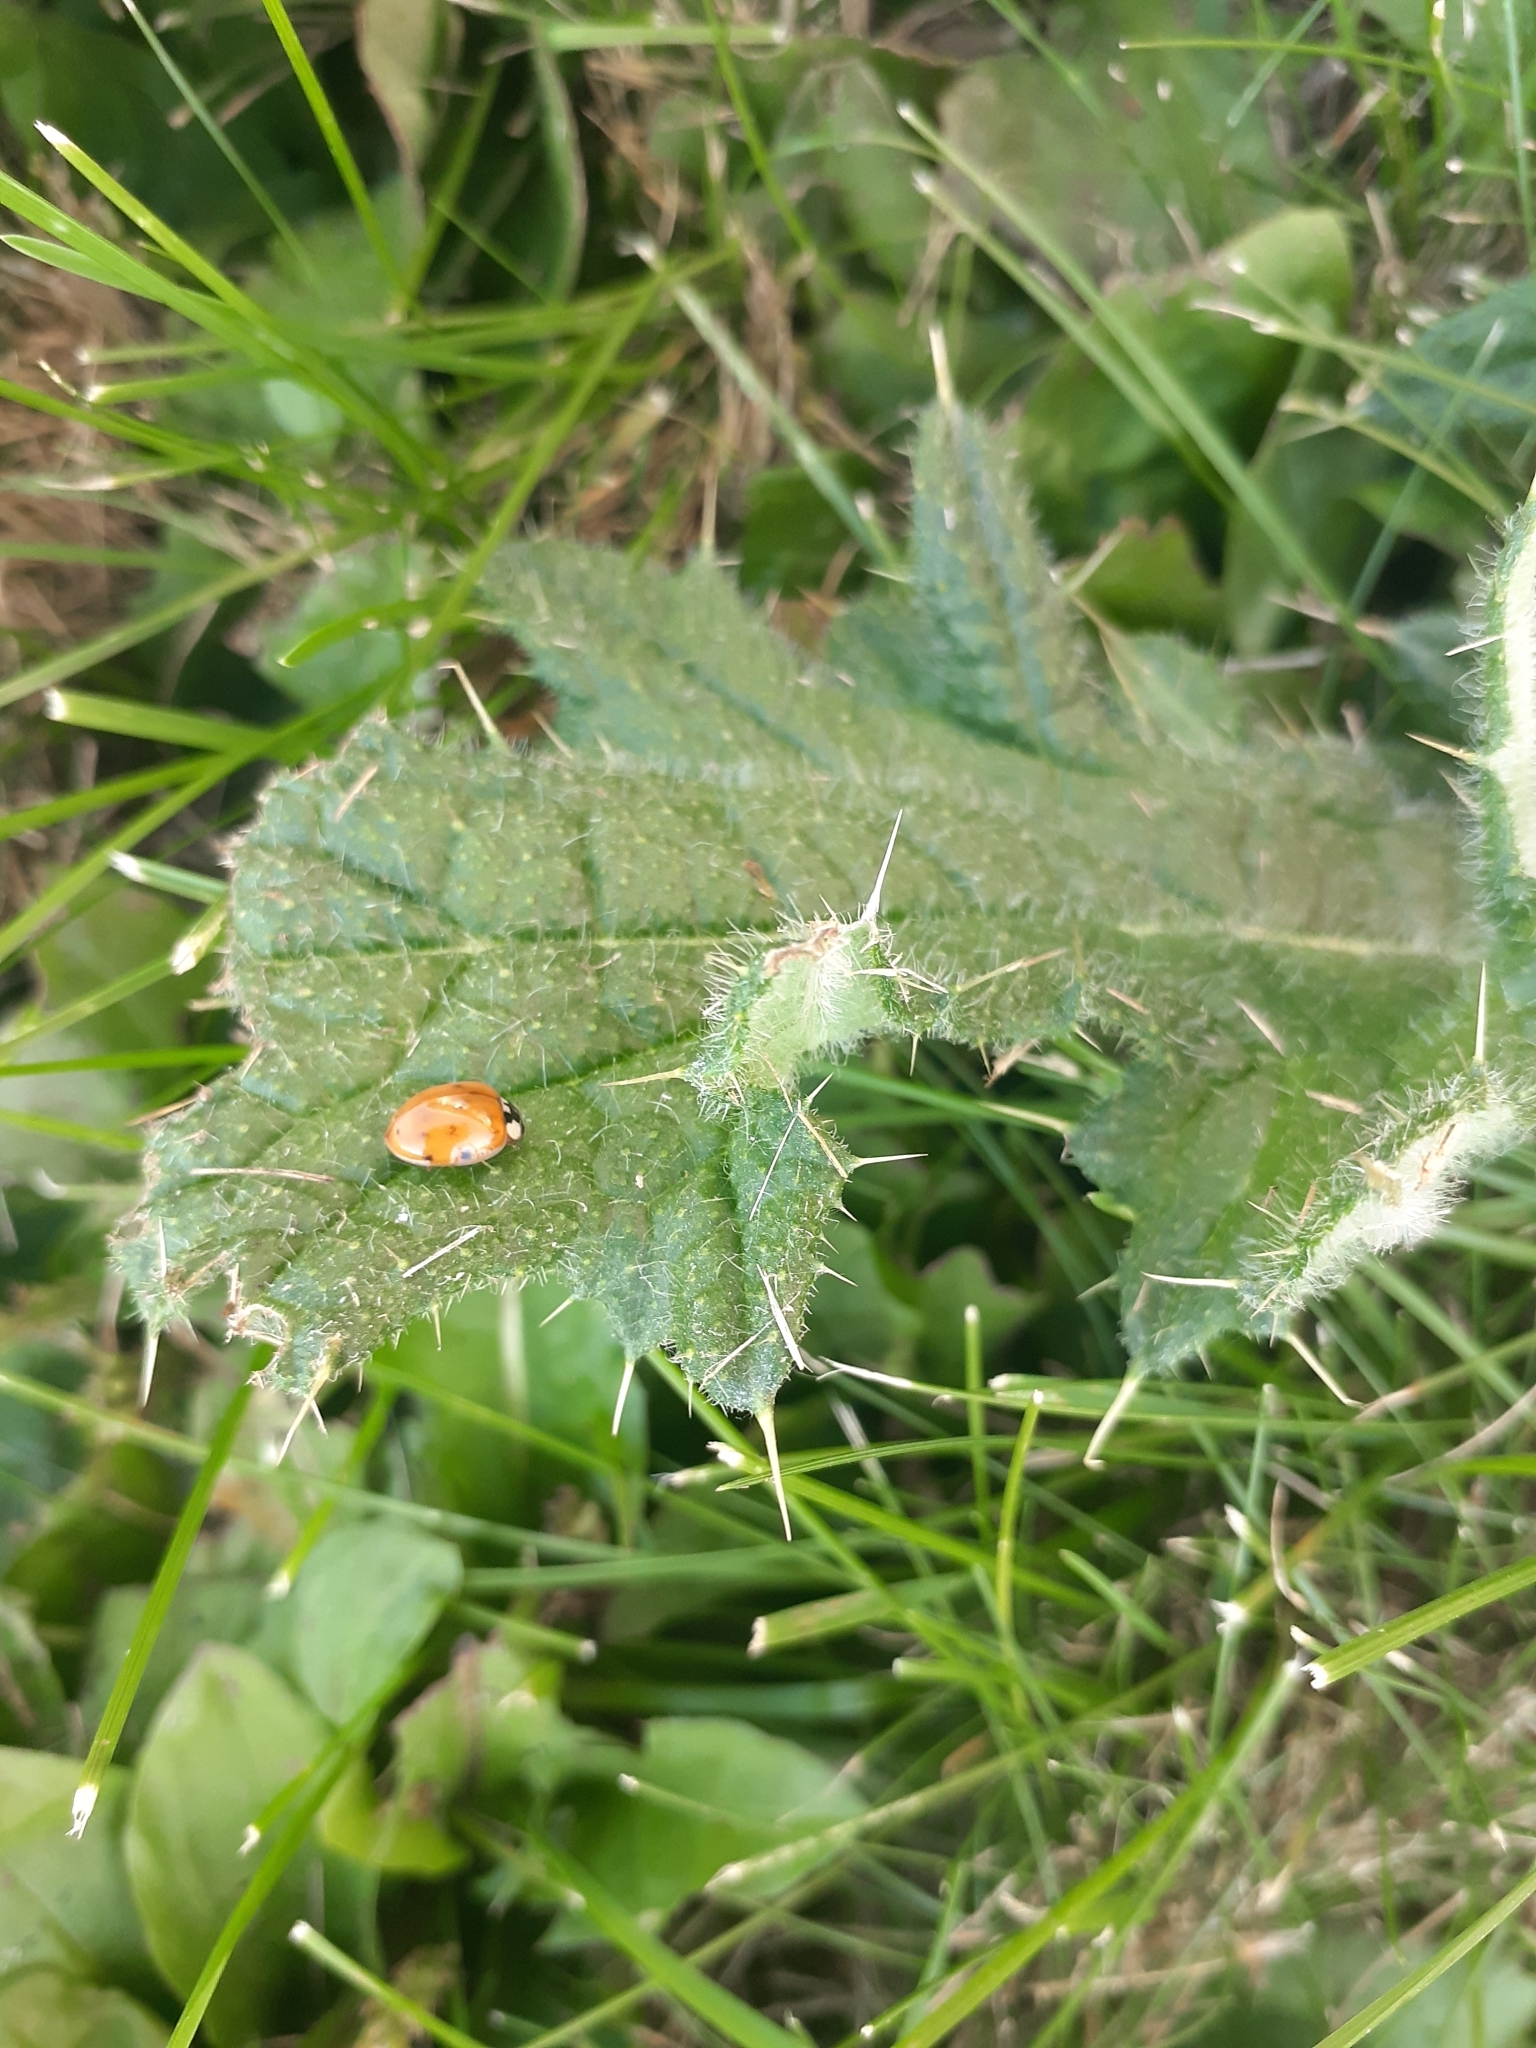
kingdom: Animalia
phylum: Arthropoda
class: Insecta
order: Coleoptera
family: Coccinellidae
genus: Harmonia
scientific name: Harmonia axyridis
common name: Harlequin ladybird
